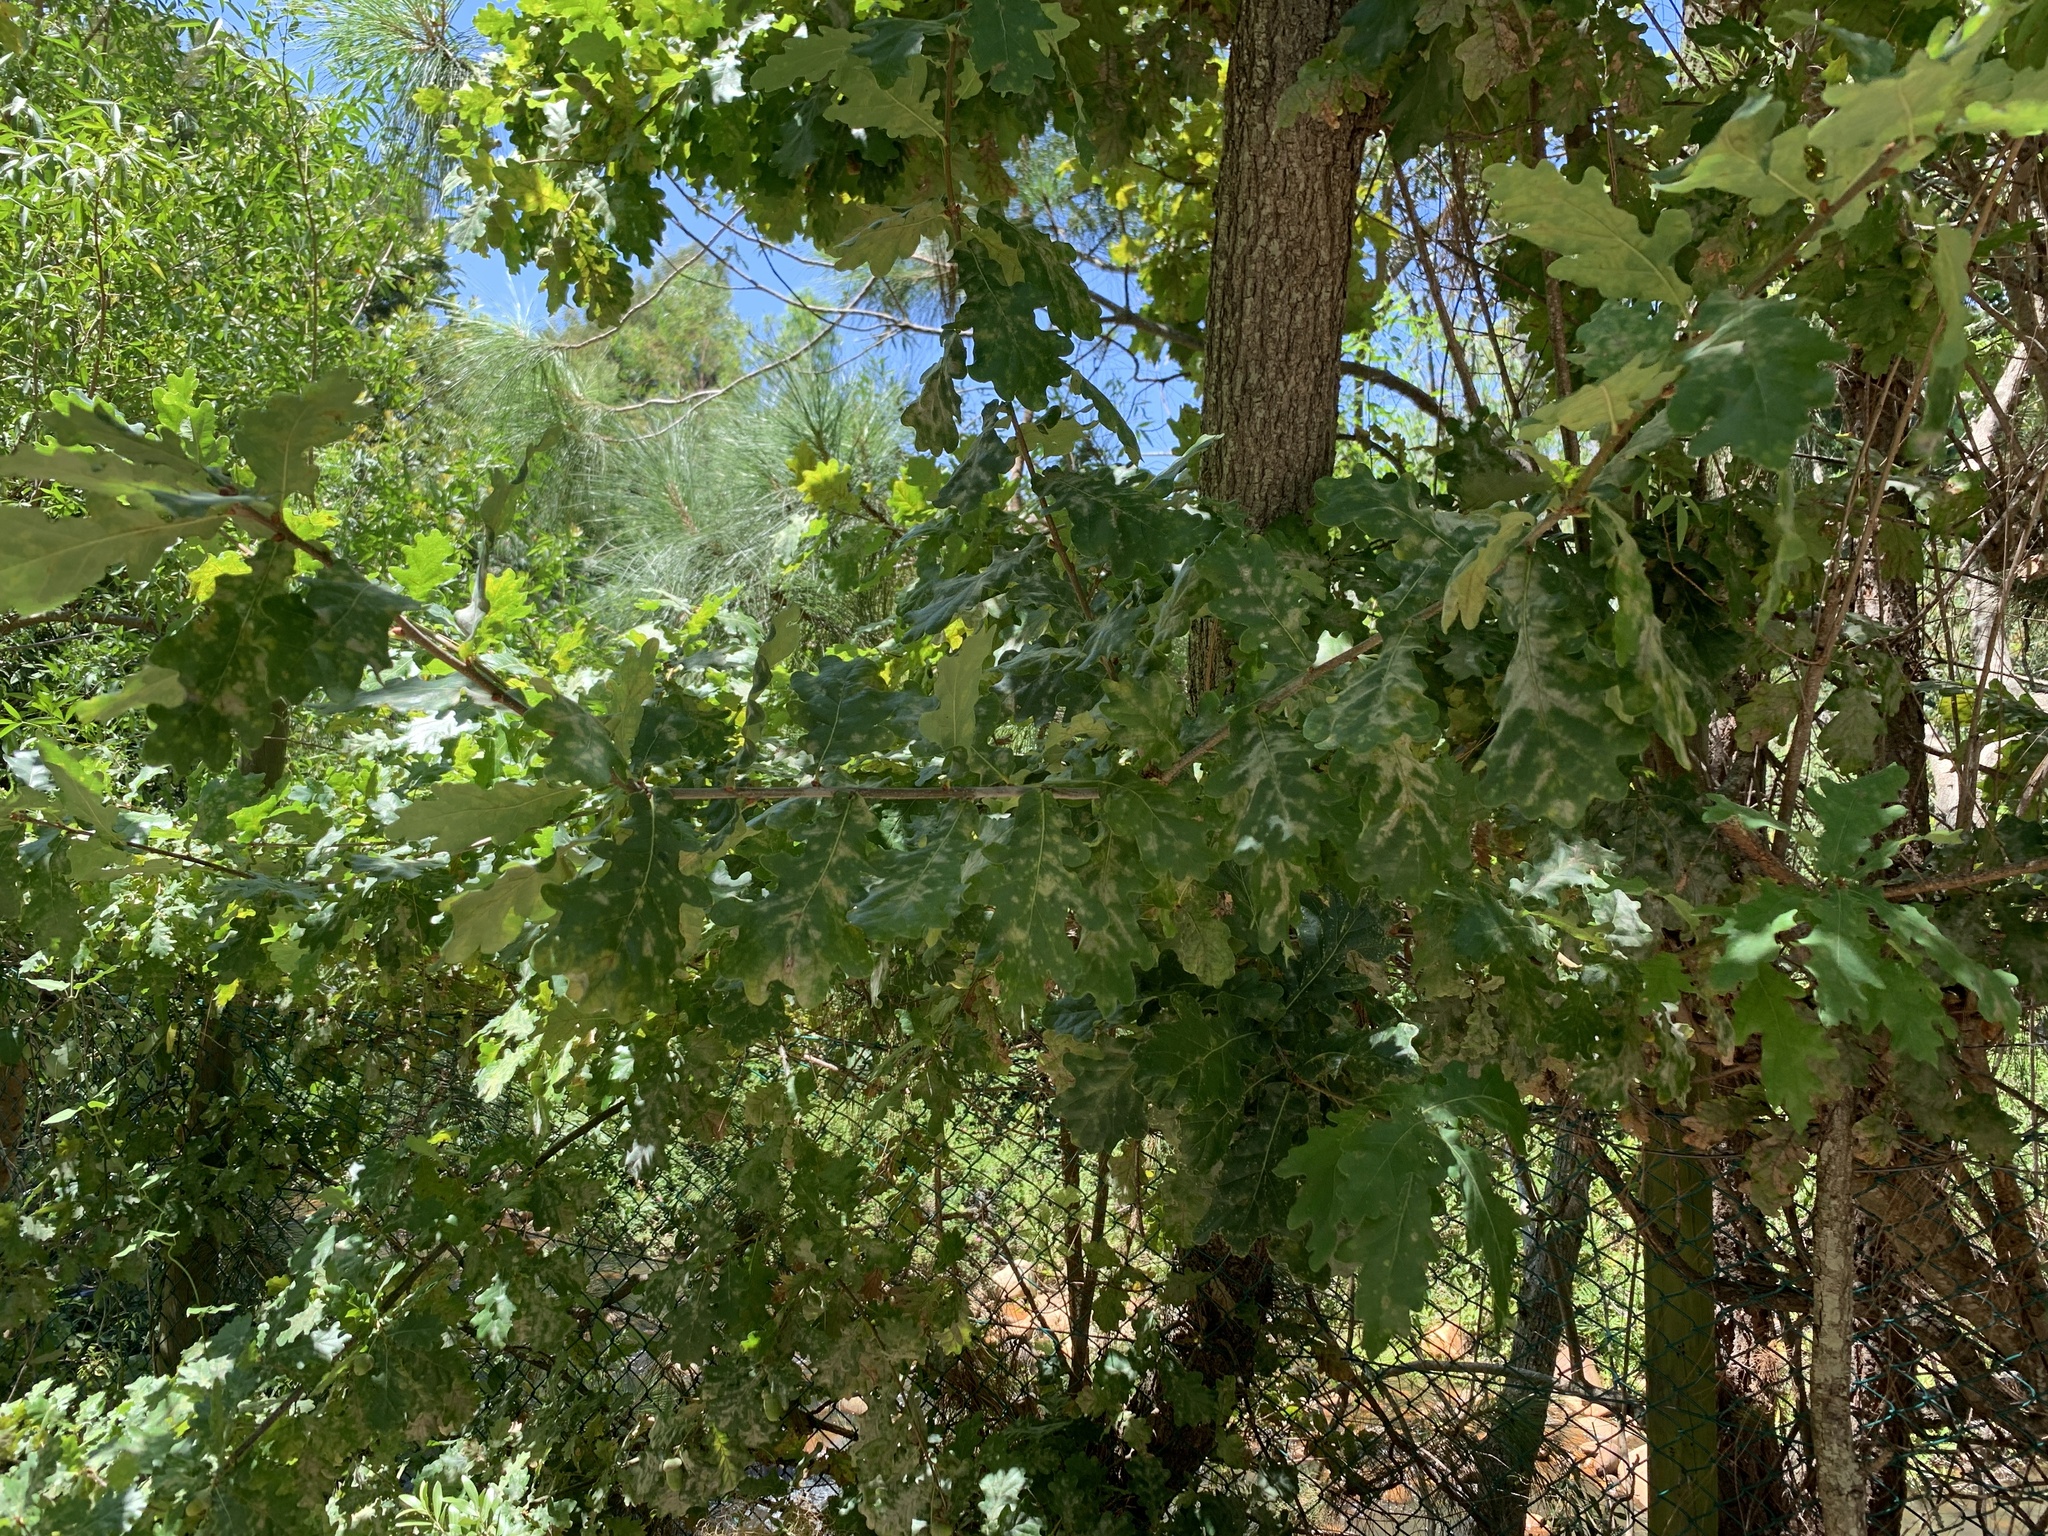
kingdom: Plantae
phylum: Tracheophyta
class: Magnoliopsida
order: Fagales
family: Fagaceae
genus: Quercus
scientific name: Quercus robur
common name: Pedunculate oak
